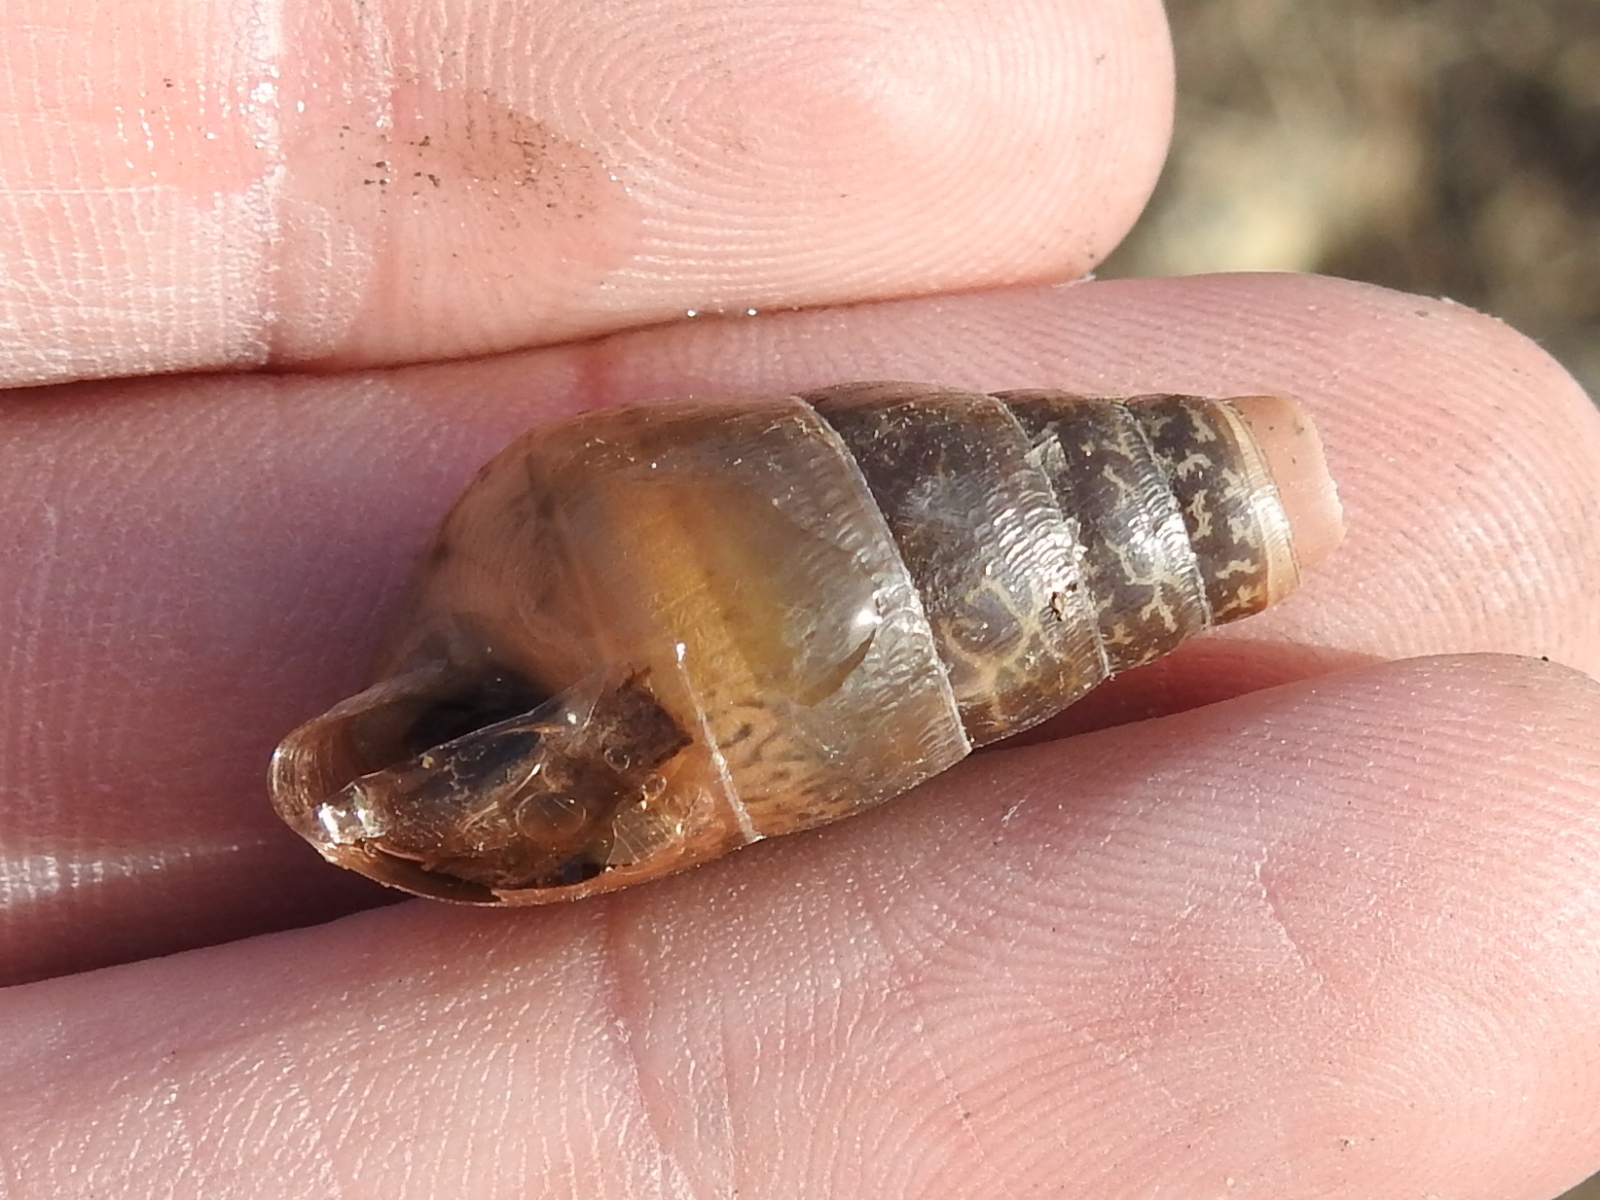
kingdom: Animalia
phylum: Mollusca
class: Gastropoda
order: Stylommatophora
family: Achatinidae
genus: Rumina
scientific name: Rumina decollata
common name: Decollate snail
